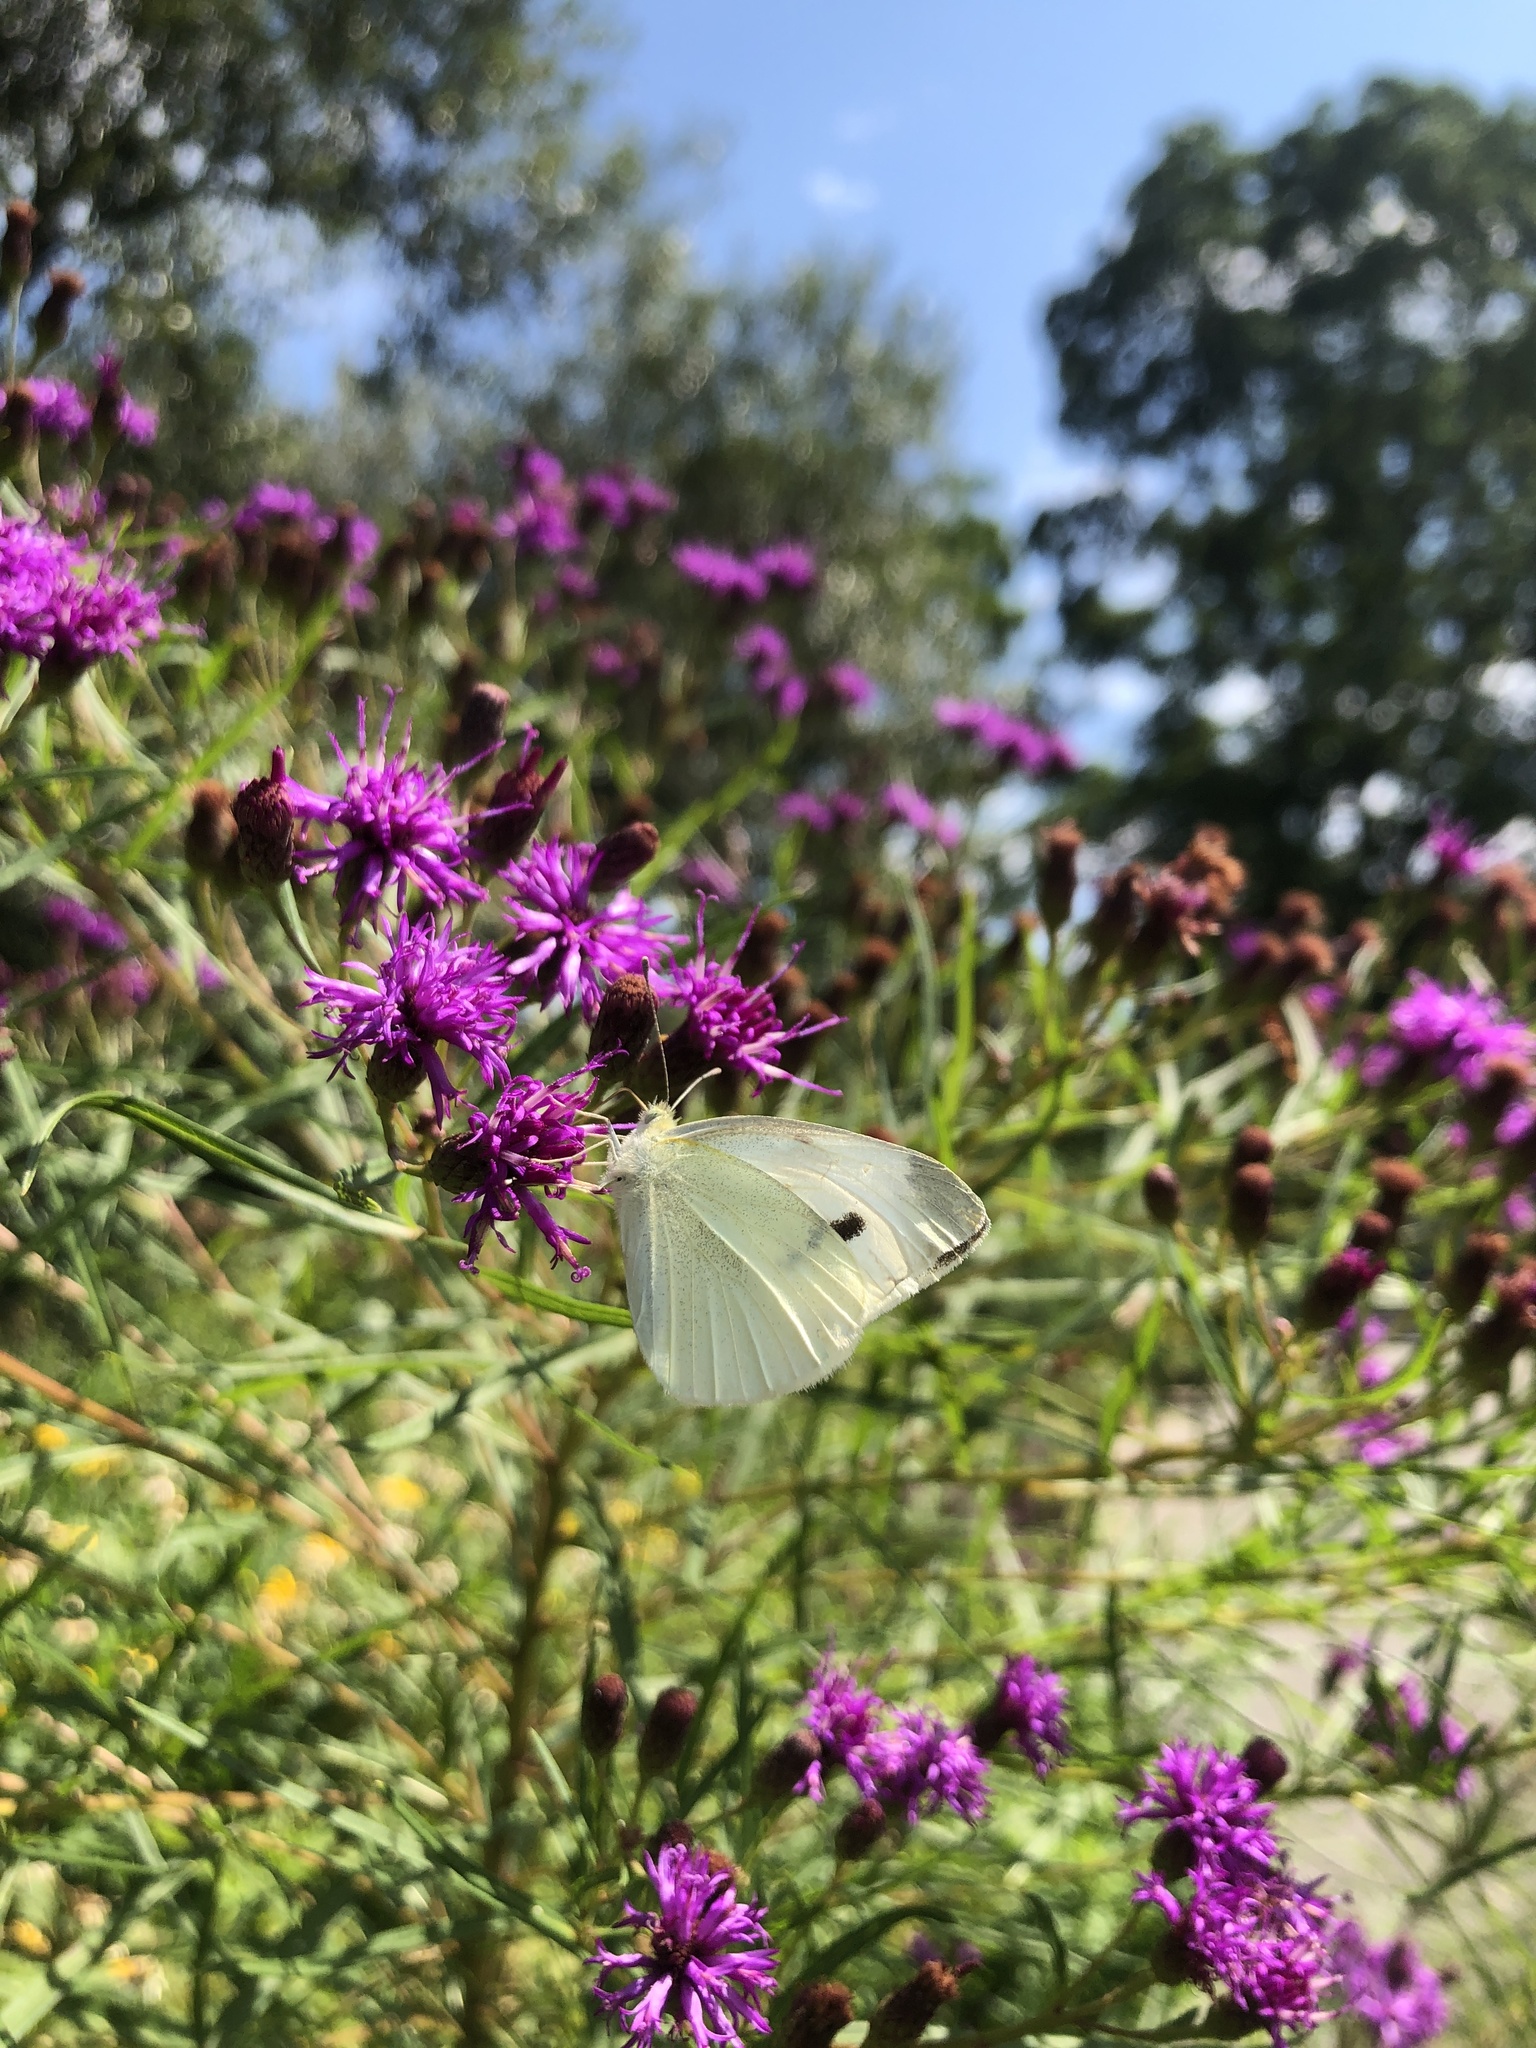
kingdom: Animalia
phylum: Arthropoda
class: Insecta
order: Lepidoptera
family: Pieridae
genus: Pieris
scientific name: Pieris rapae
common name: Small white
